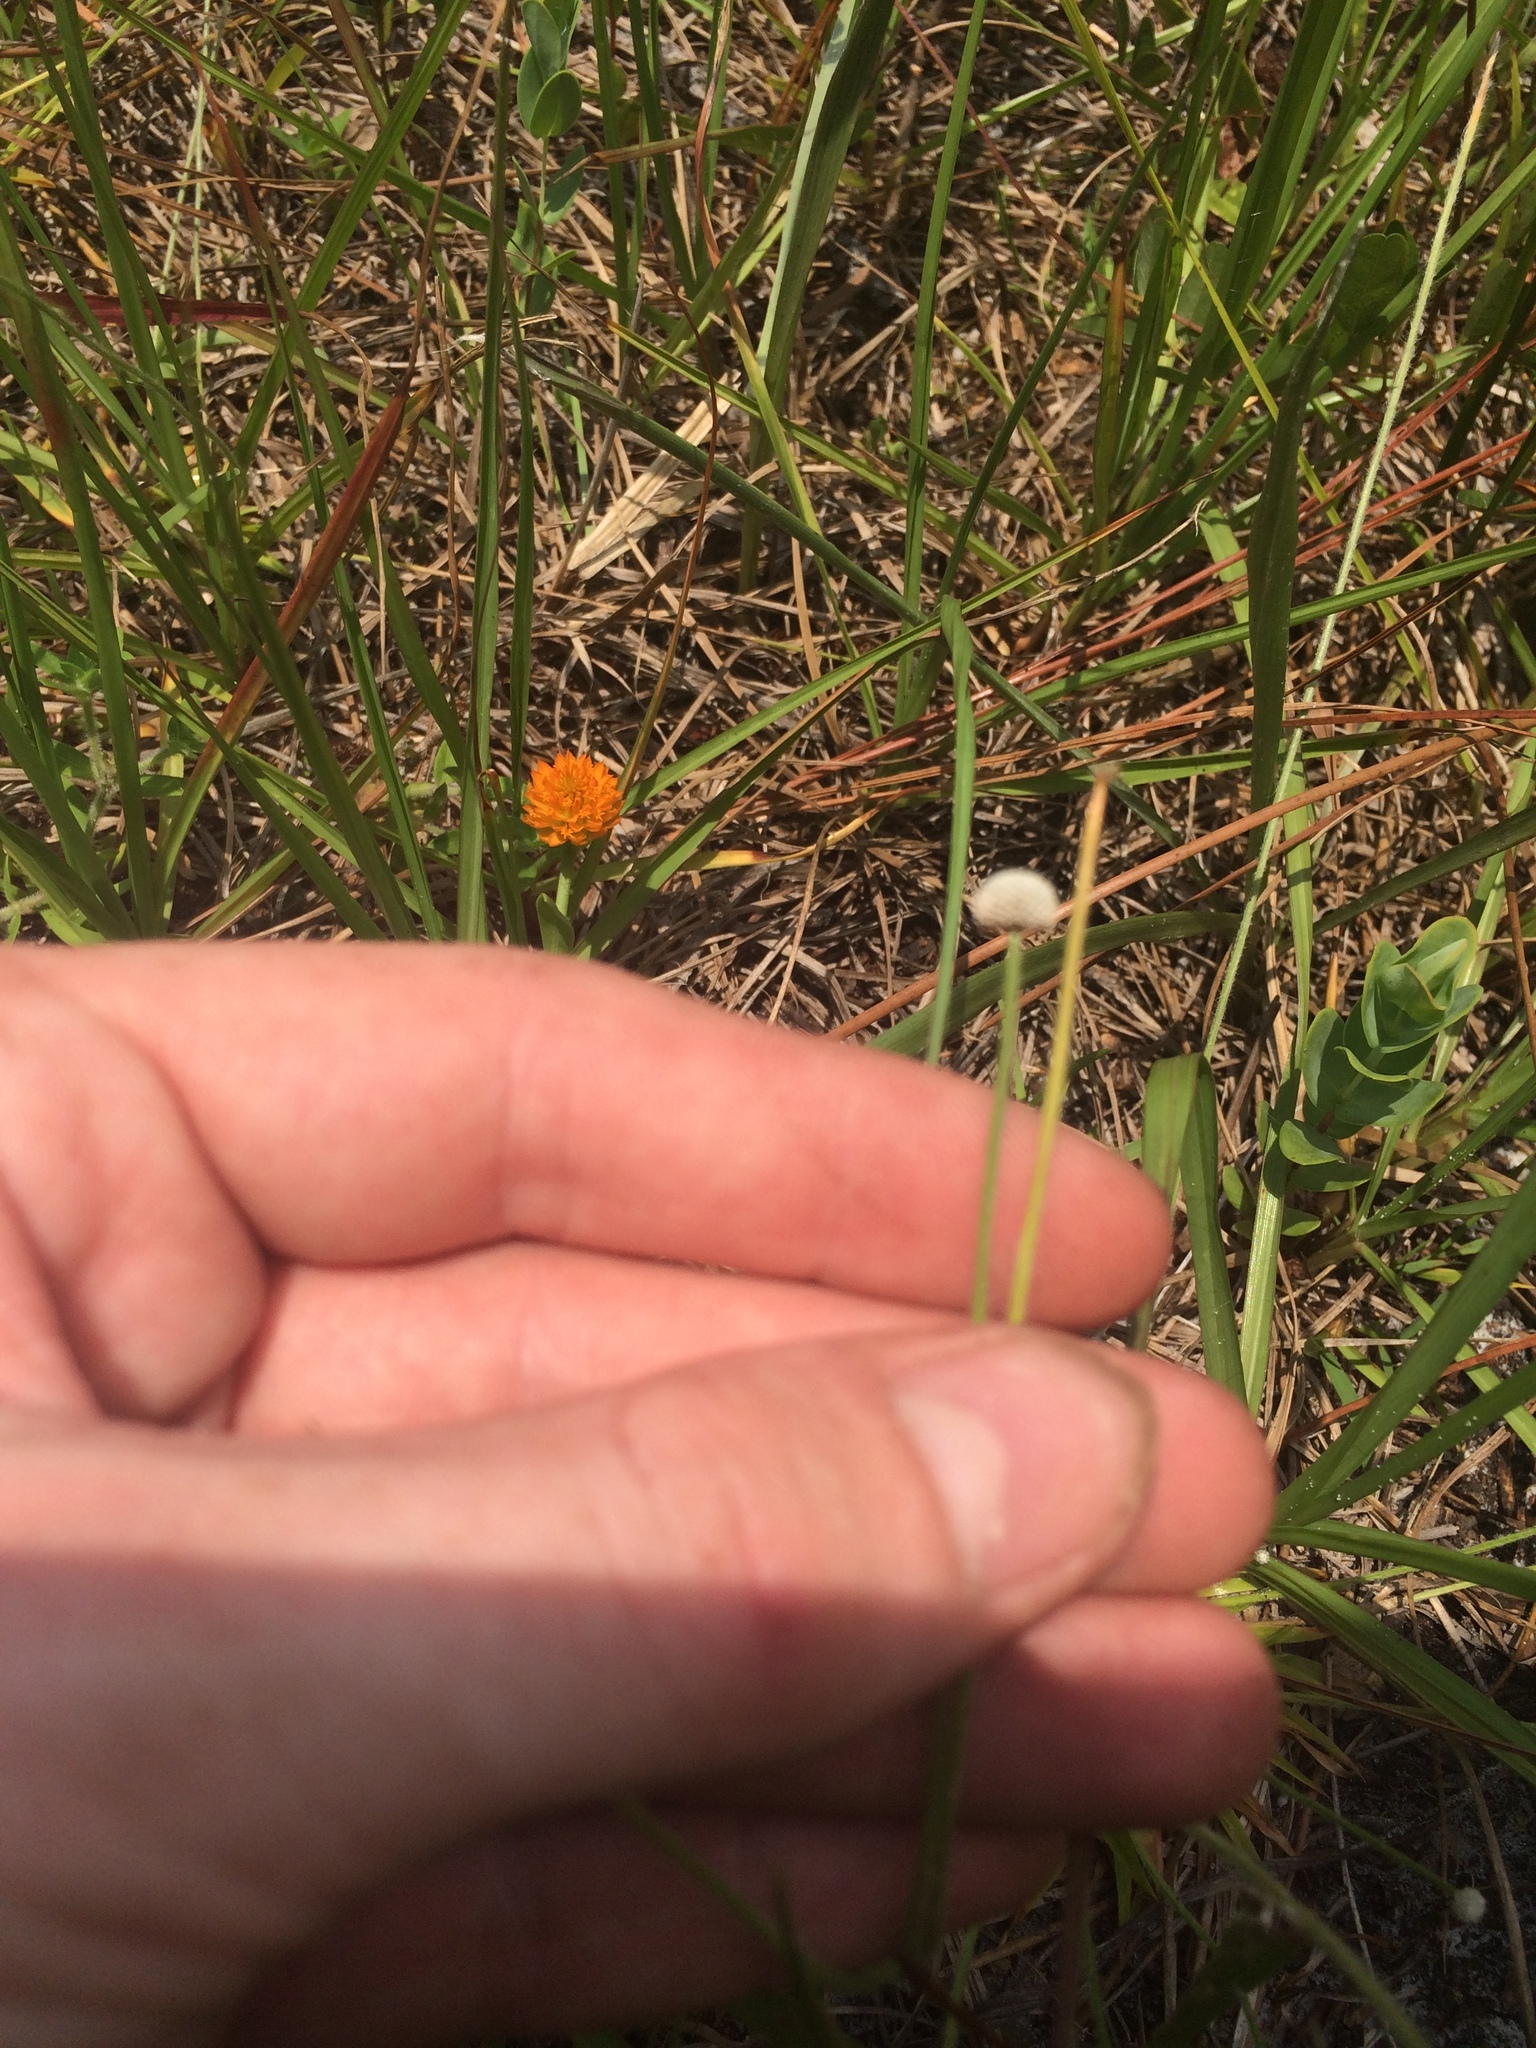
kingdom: Plantae
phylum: Tracheophyta
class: Liliopsida
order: Poales
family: Eriocaulaceae
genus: Paepalanthus
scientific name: Paepalanthus anceps
